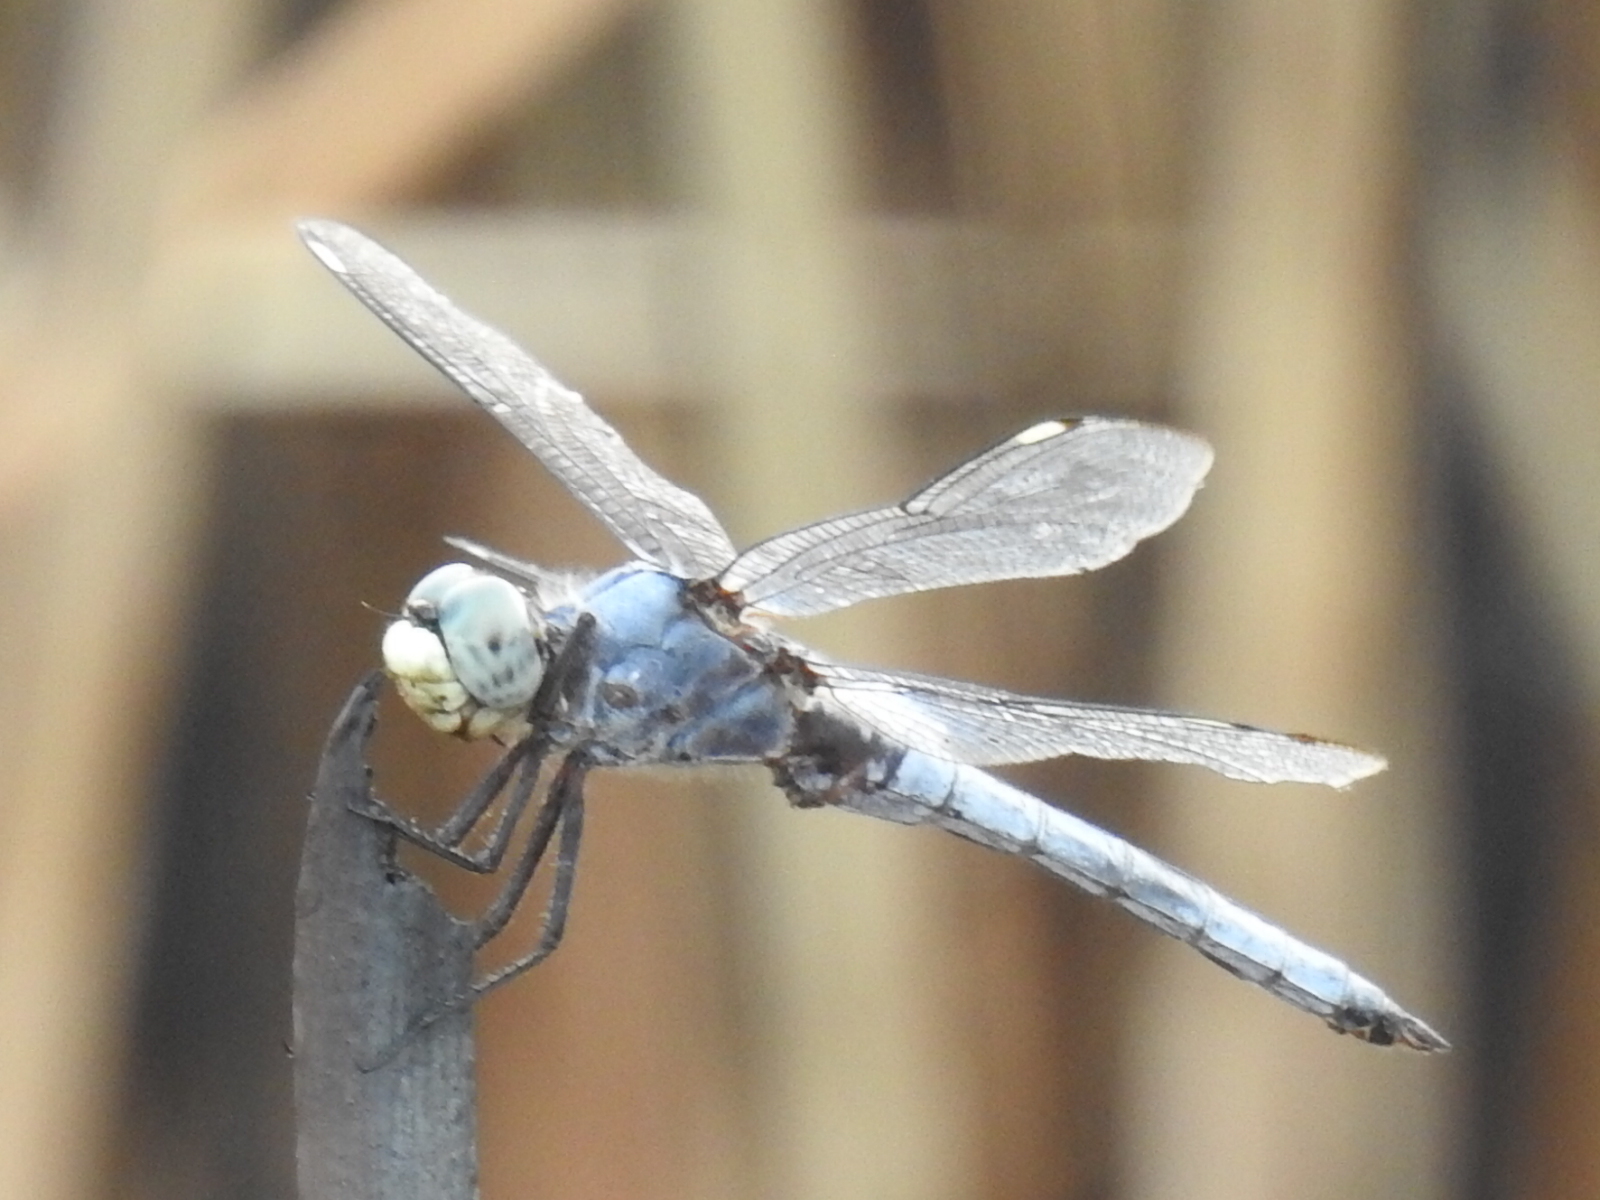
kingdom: Animalia
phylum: Arthropoda
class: Insecta
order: Odonata
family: Libellulidae
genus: Libellula
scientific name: Libellula comanche
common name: Comanche skimmer
